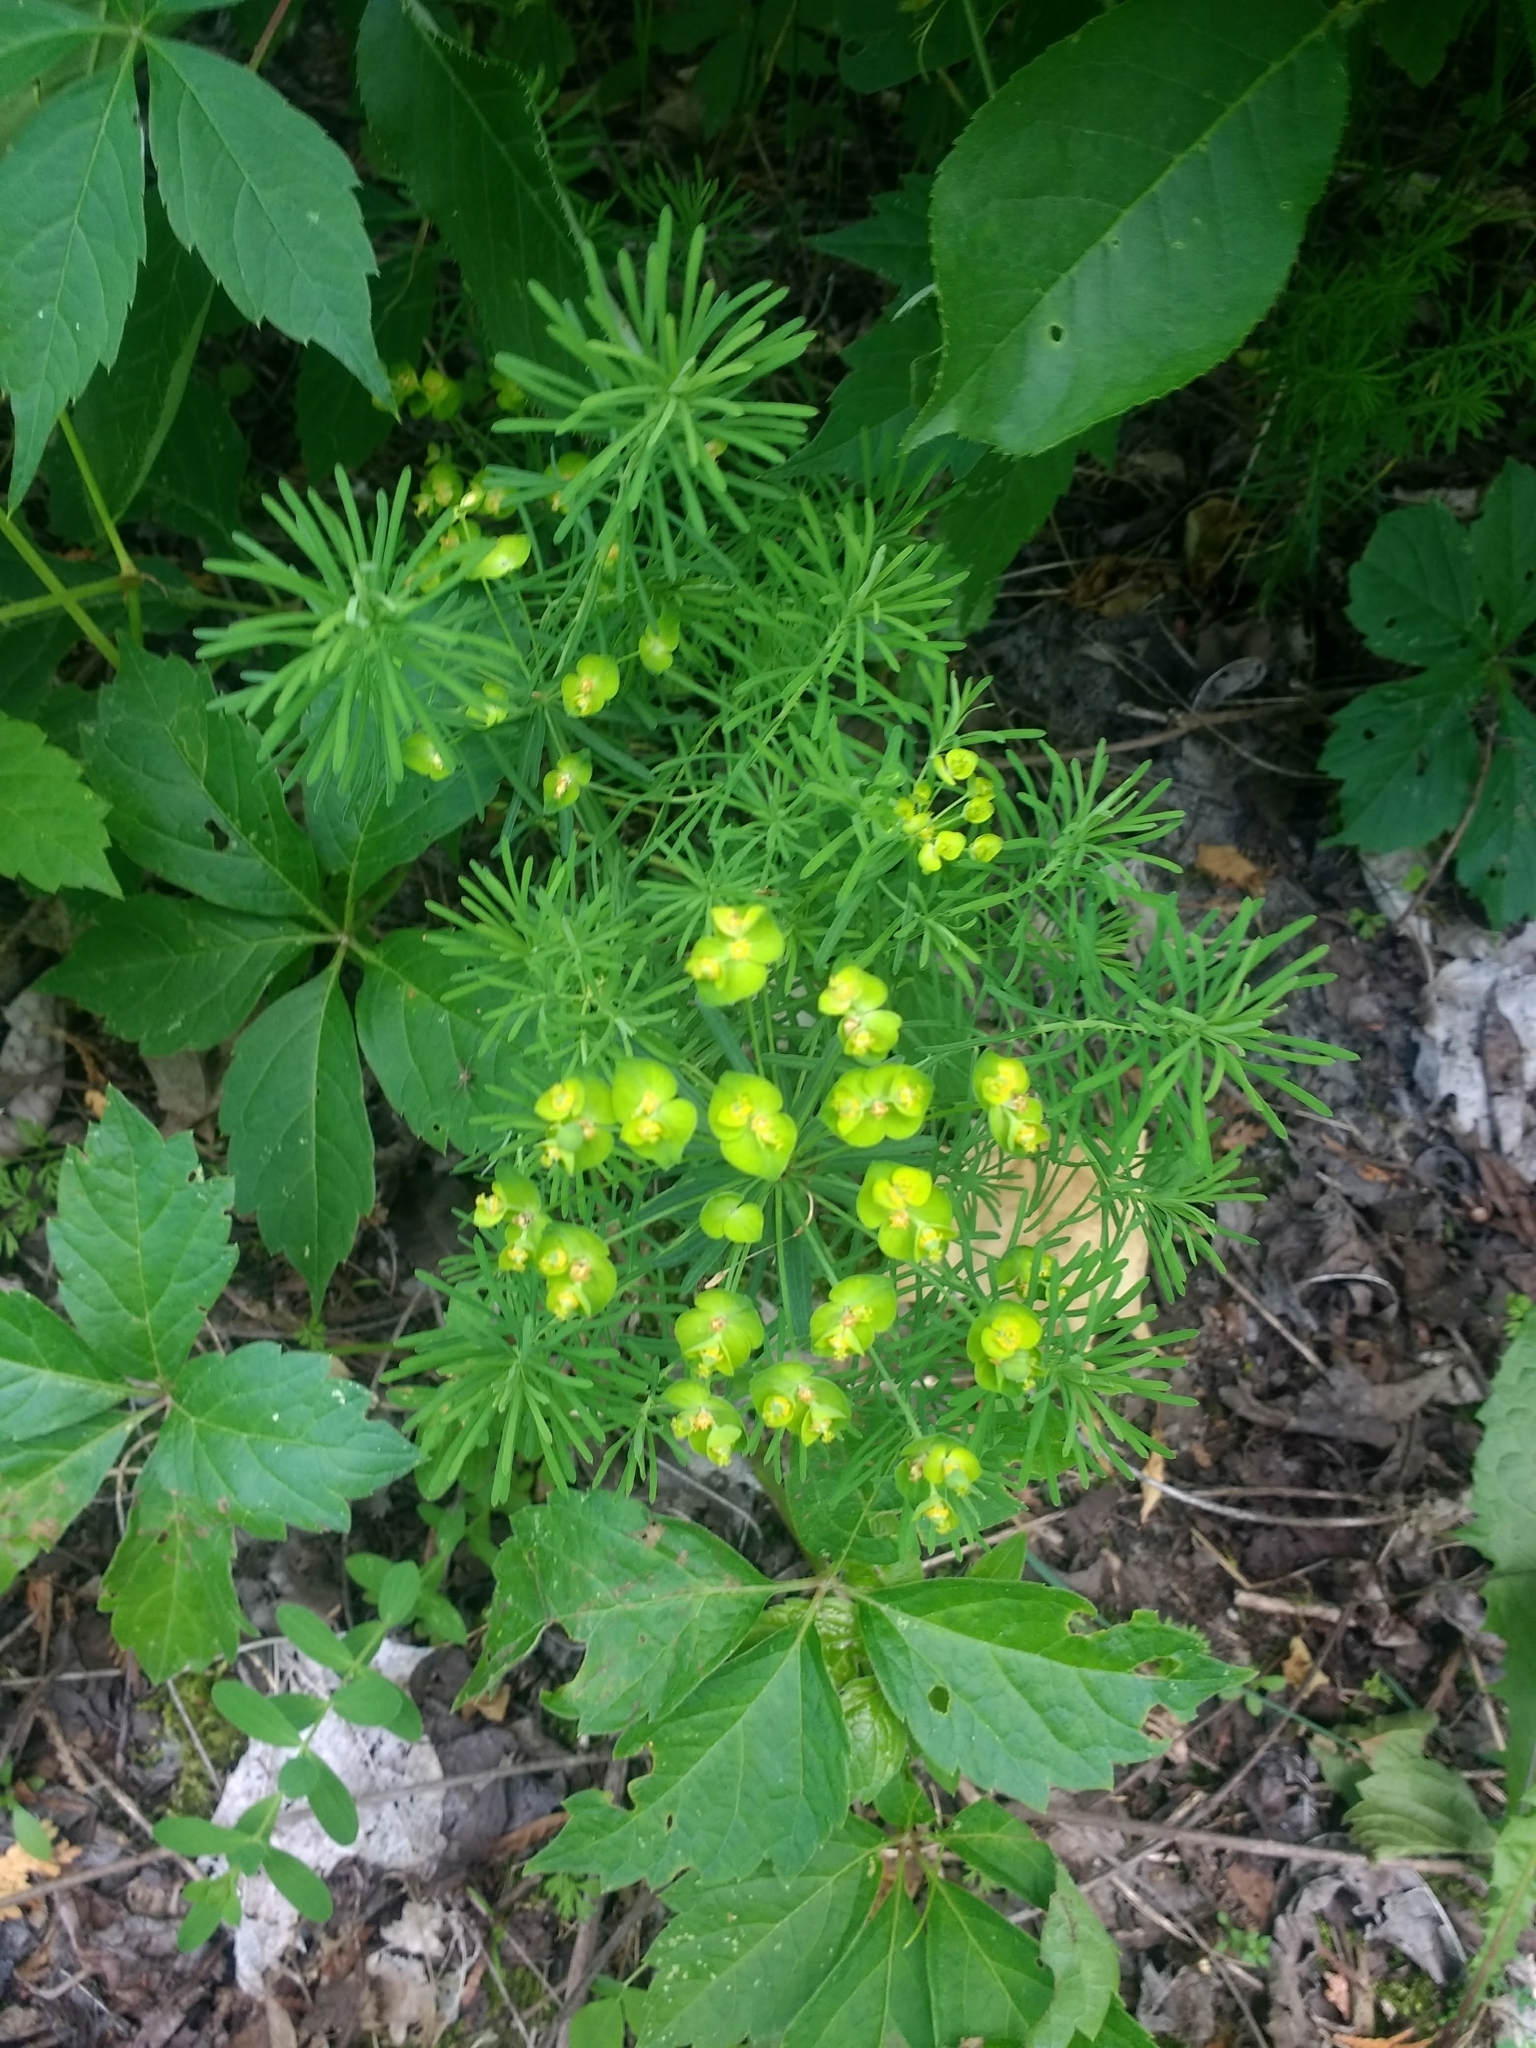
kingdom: Plantae
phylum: Tracheophyta
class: Magnoliopsida
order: Malpighiales
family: Euphorbiaceae
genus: Euphorbia
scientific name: Euphorbia cyparissias
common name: Cypress spurge
